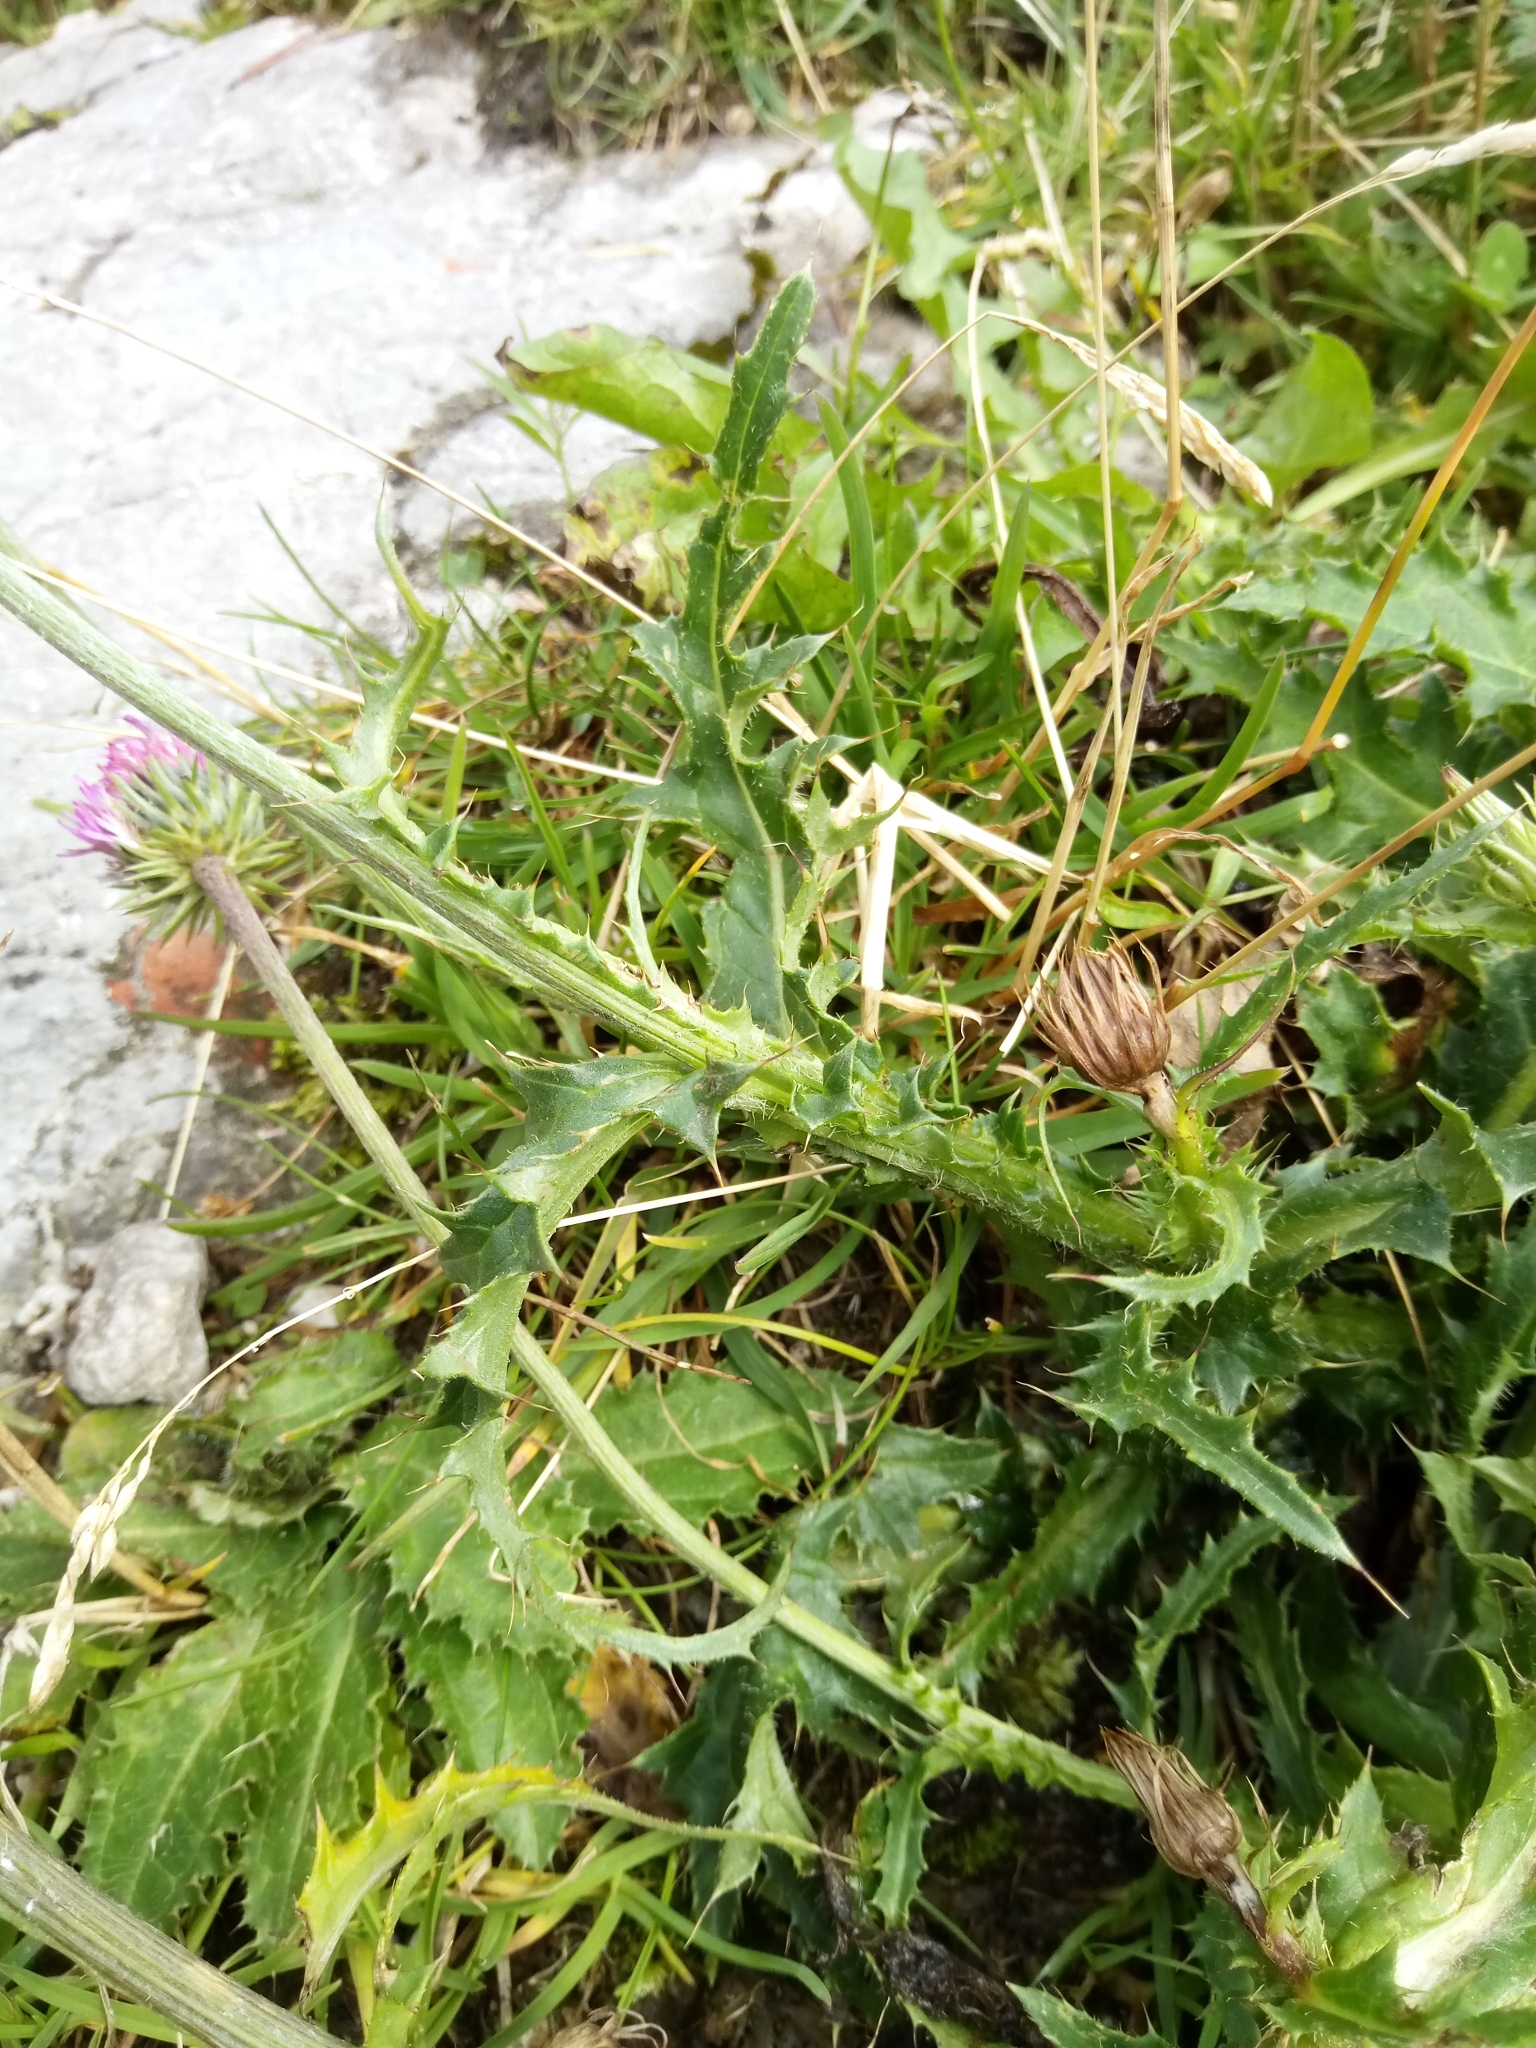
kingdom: Plantae
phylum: Tracheophyta
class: Magnoliopsida
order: Asterales
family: Asteraceae
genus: Carduus
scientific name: Carduus defloratus
